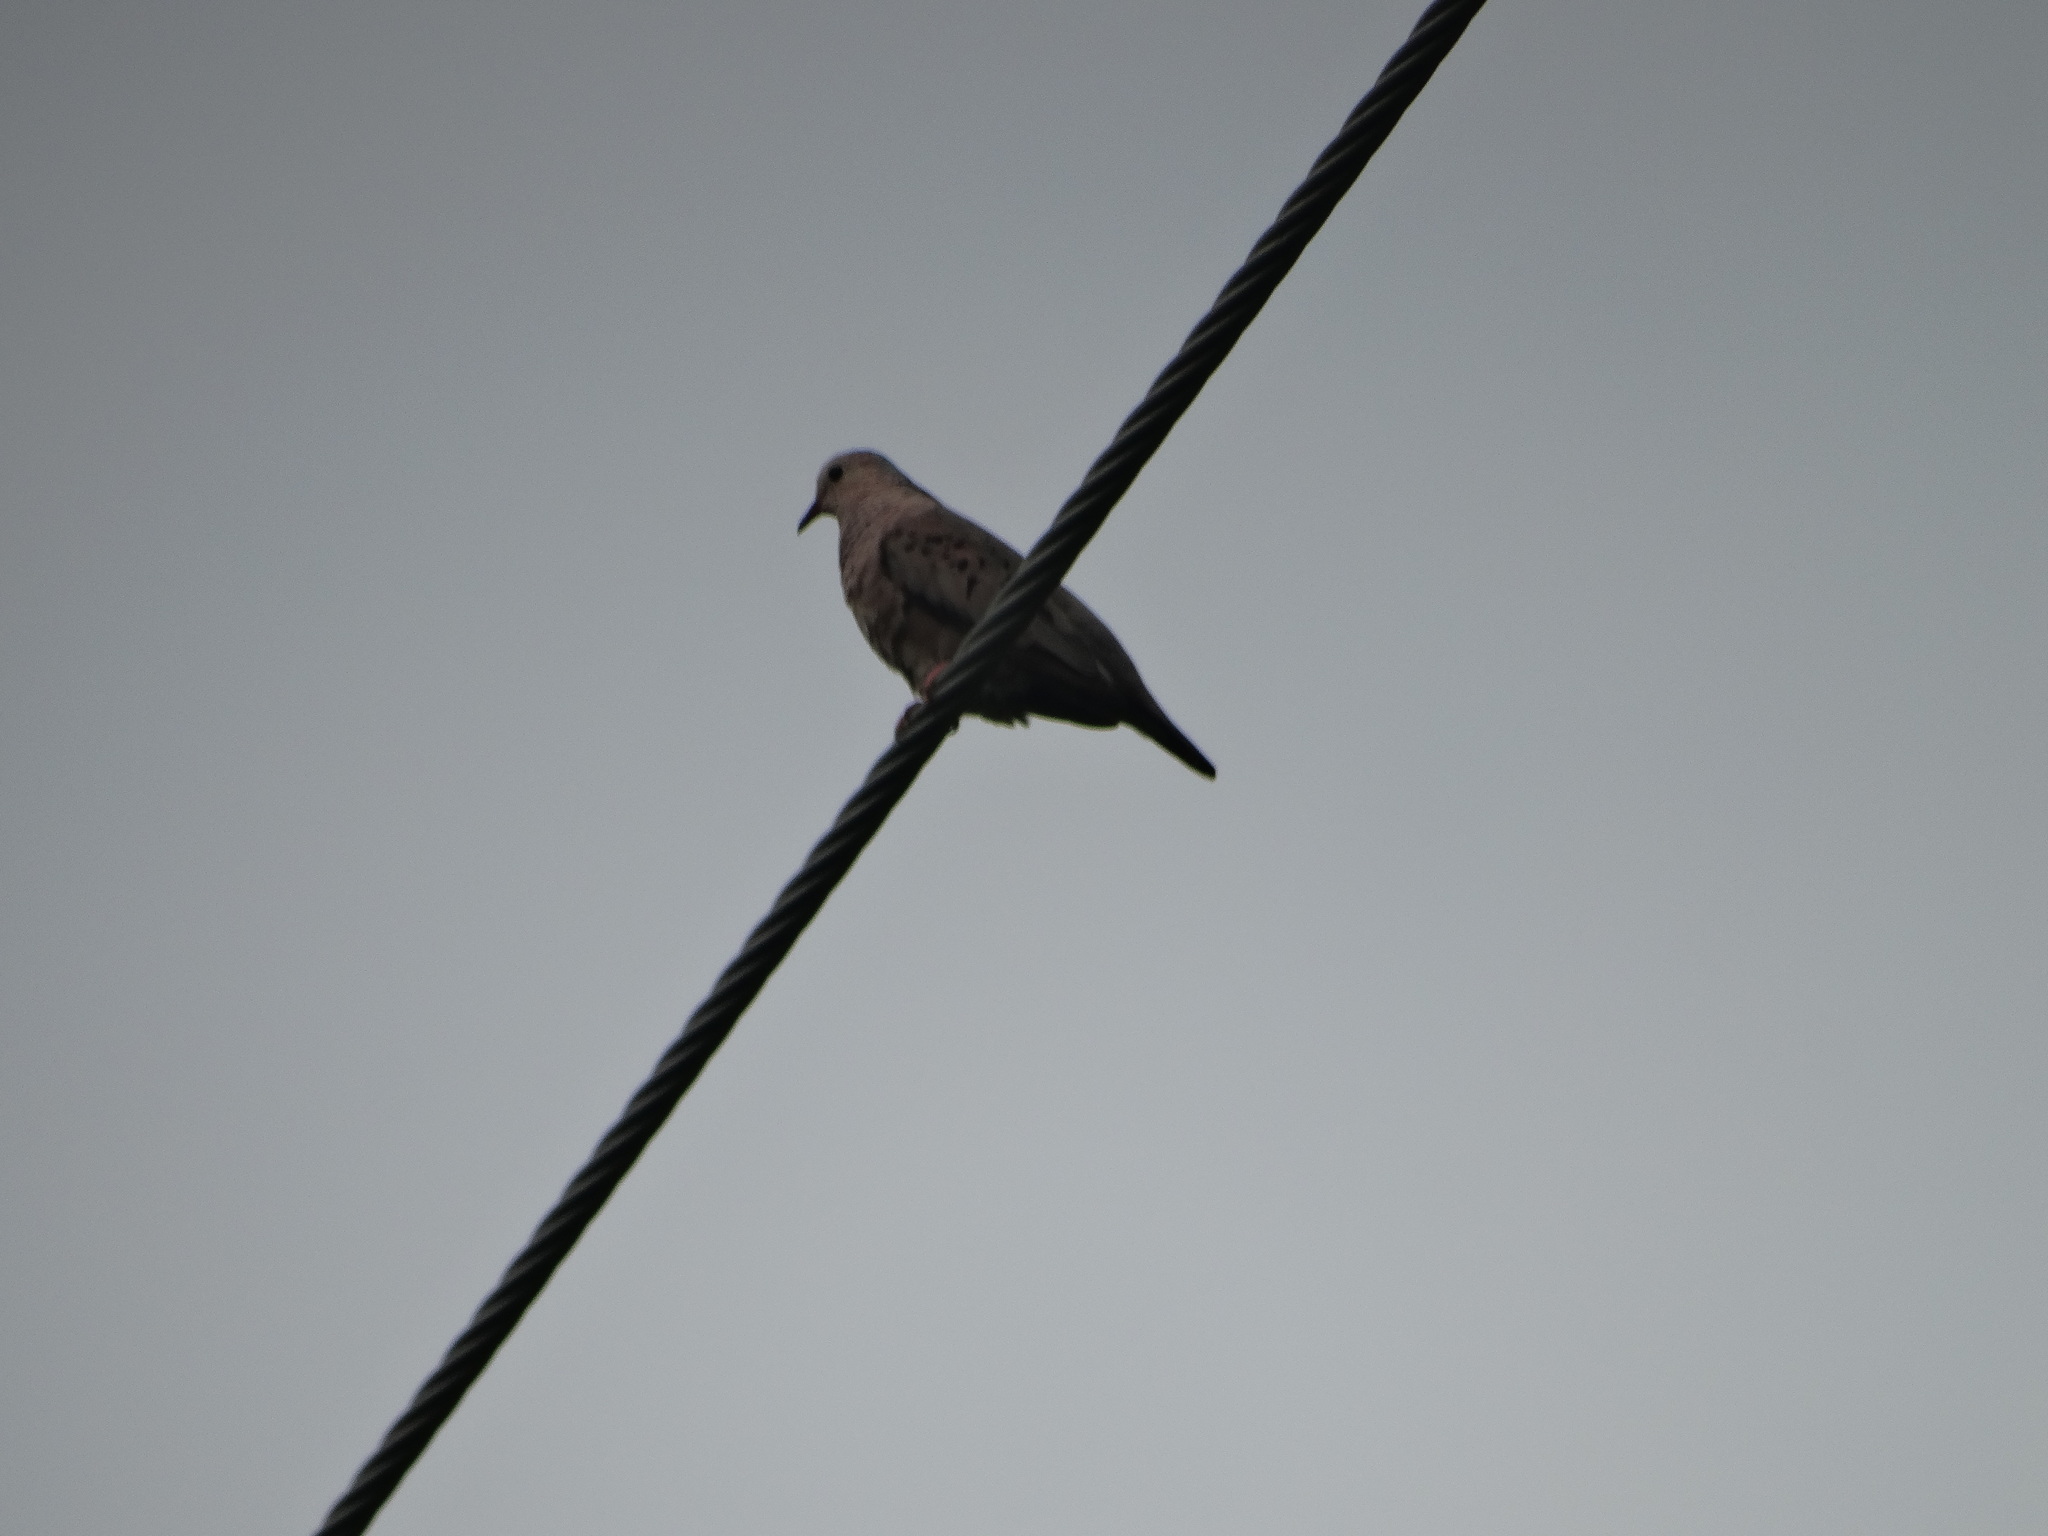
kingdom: Animalia
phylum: Chordata
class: Aves
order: Columbiformes
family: Columbidae
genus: Columbina
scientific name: Columbina passerina
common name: Common ground-dove
